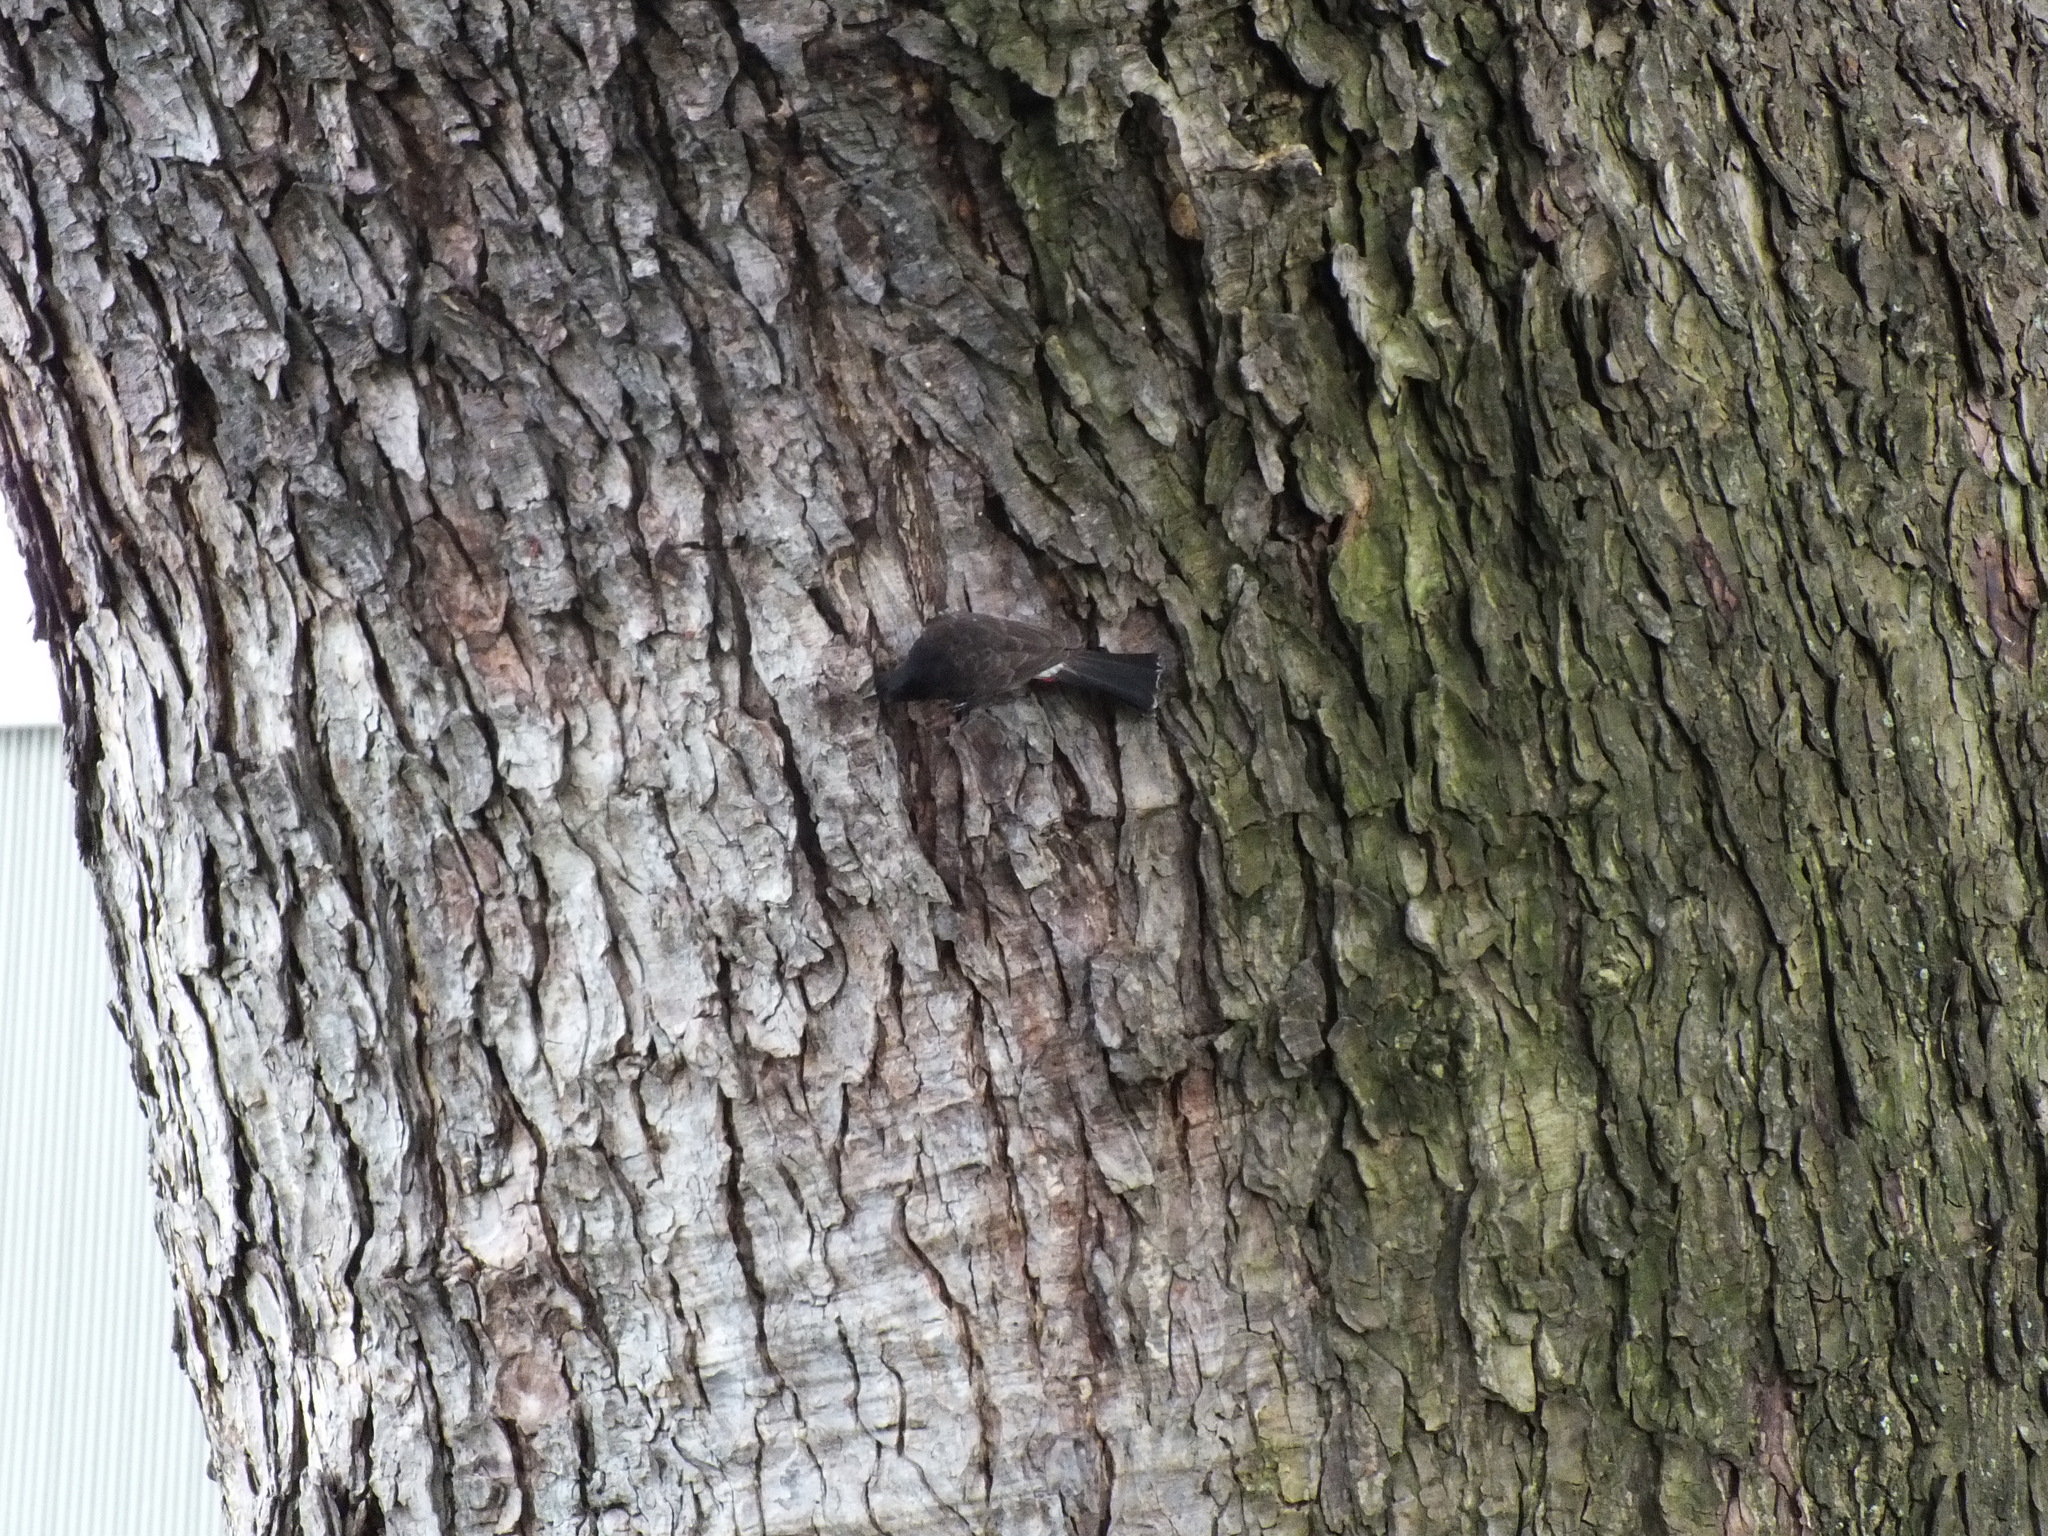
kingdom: Animalia
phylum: Chordata
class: Aves
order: Passeriformes
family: Pycnonotidae
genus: Pycnonotus
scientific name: Pycnonotus cafer
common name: Red-vented bulbul
